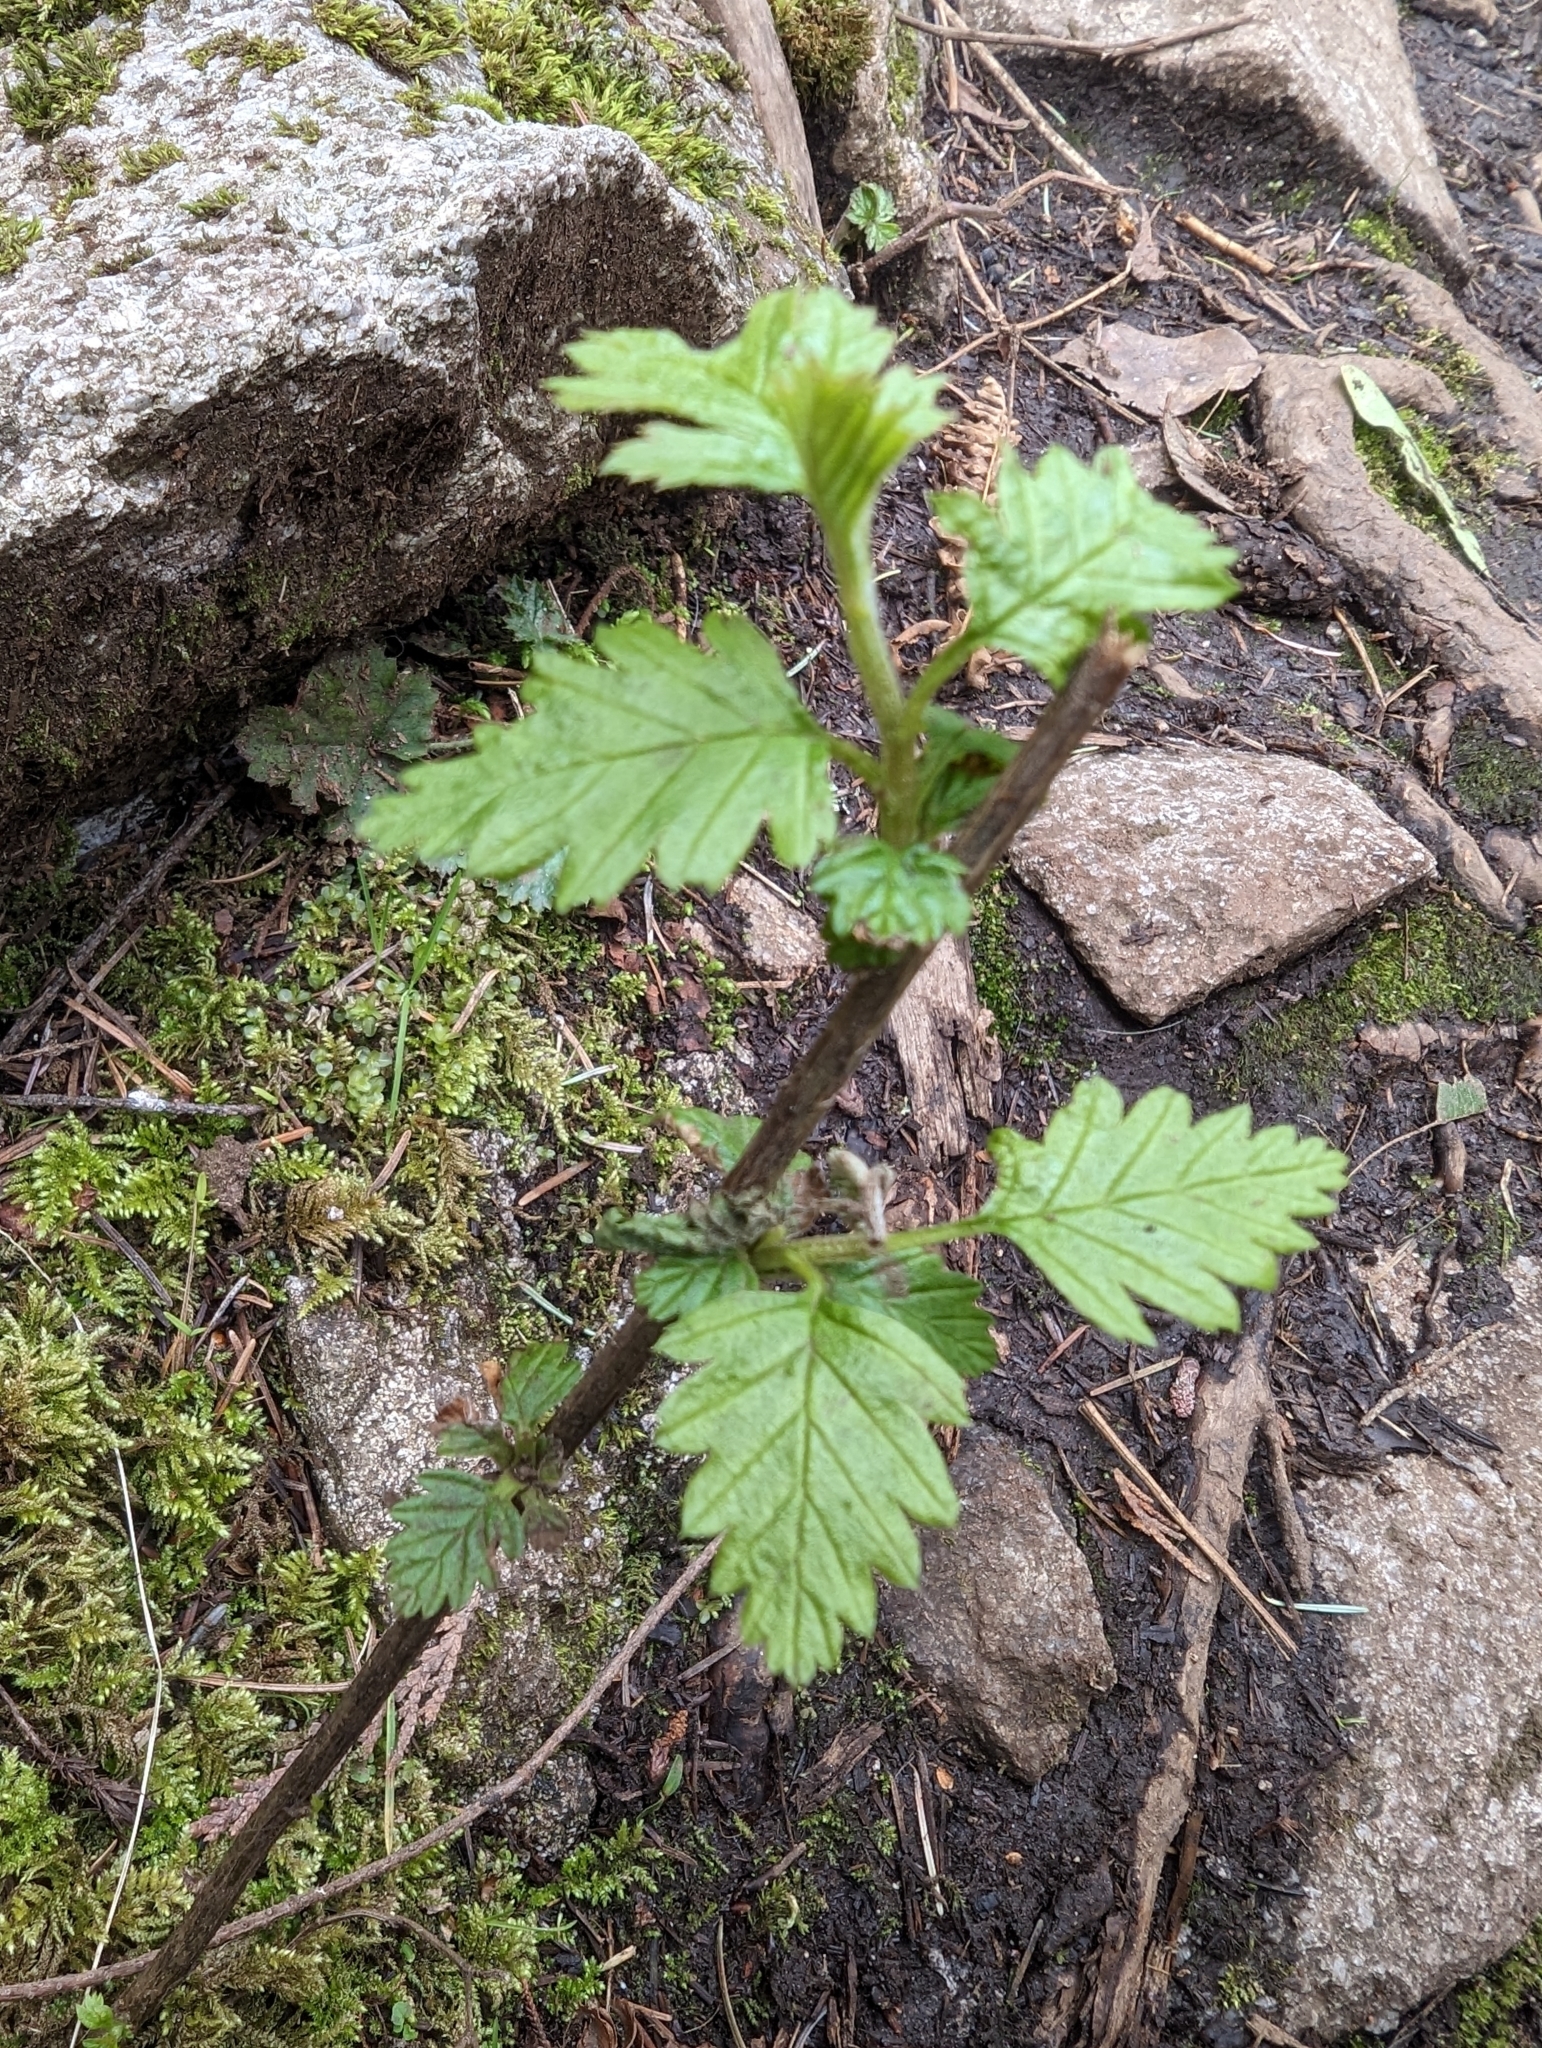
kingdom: Plantae
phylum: Tracheophyta
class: Magnoliopsida
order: Rosales
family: Rosaceae
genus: Holodiscus
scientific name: Holodiscus discolor
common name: Oceanspray
